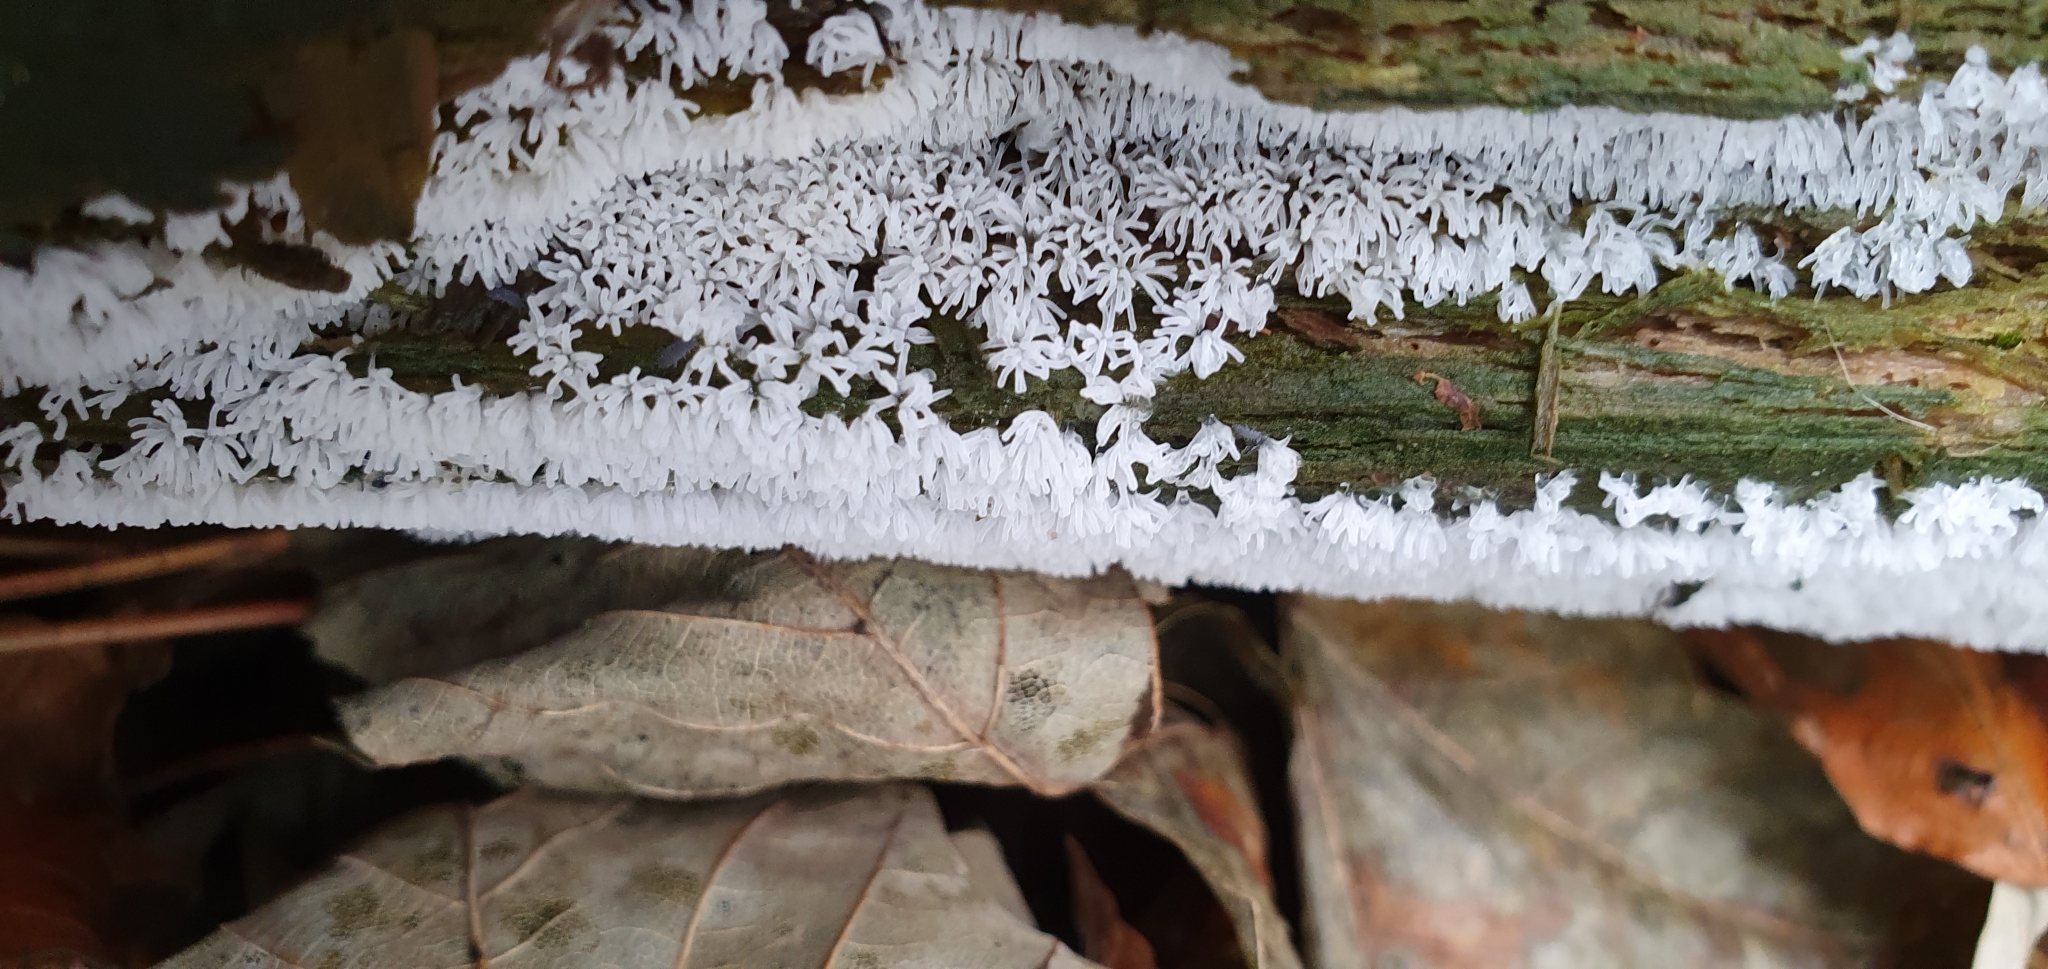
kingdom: Protozoa
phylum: Mycetozoa
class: Protosteliomycetes
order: Ceratiomyxales
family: Ceratiomyxaceae
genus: Ceratiomyxa
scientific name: Ceratiomyxa fruticulosa
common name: Honeycomb coral slime mold
